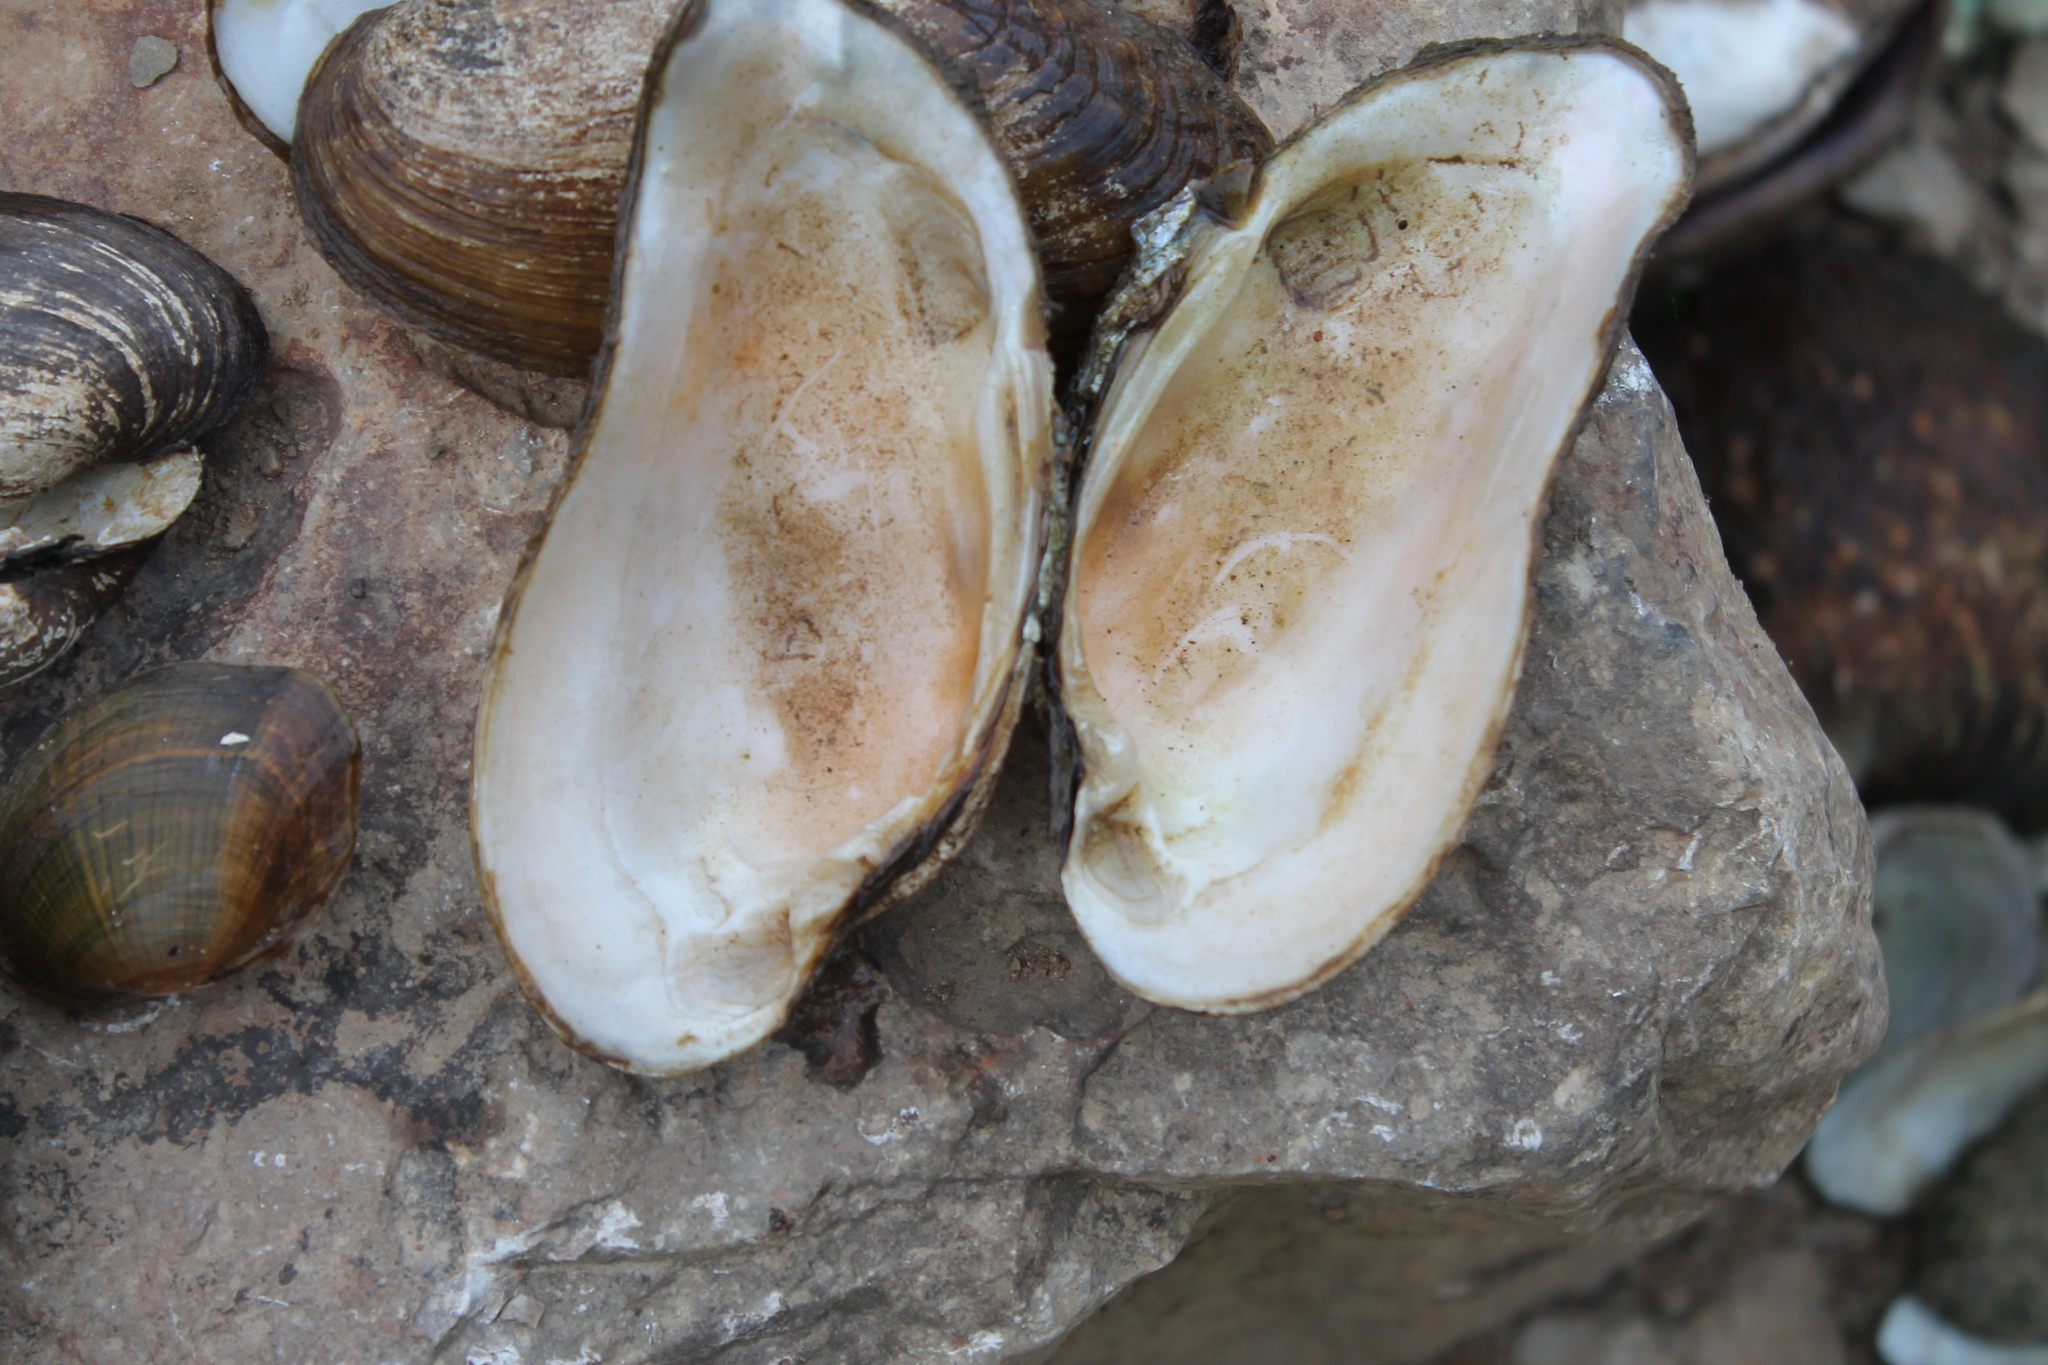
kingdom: Animalia
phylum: Mollusca
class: Bivalvia
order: Unionida
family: Unionidae
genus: Ptychobranchus
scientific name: Ptychobranchus subtentus
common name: Fluted kidneyshell
